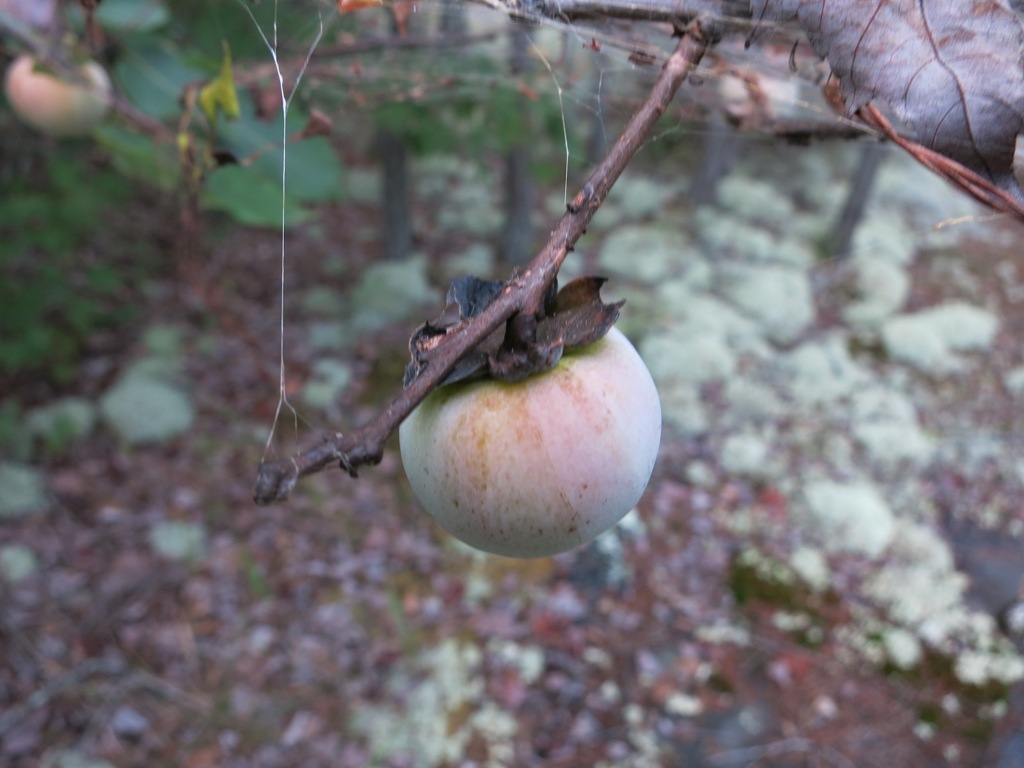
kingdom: Plantae
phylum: Tracheophyta
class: Magnoliopsida
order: Ericales
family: Ebenaceae
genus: Diospyros
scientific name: Diospyros virginiana
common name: Persimmon
